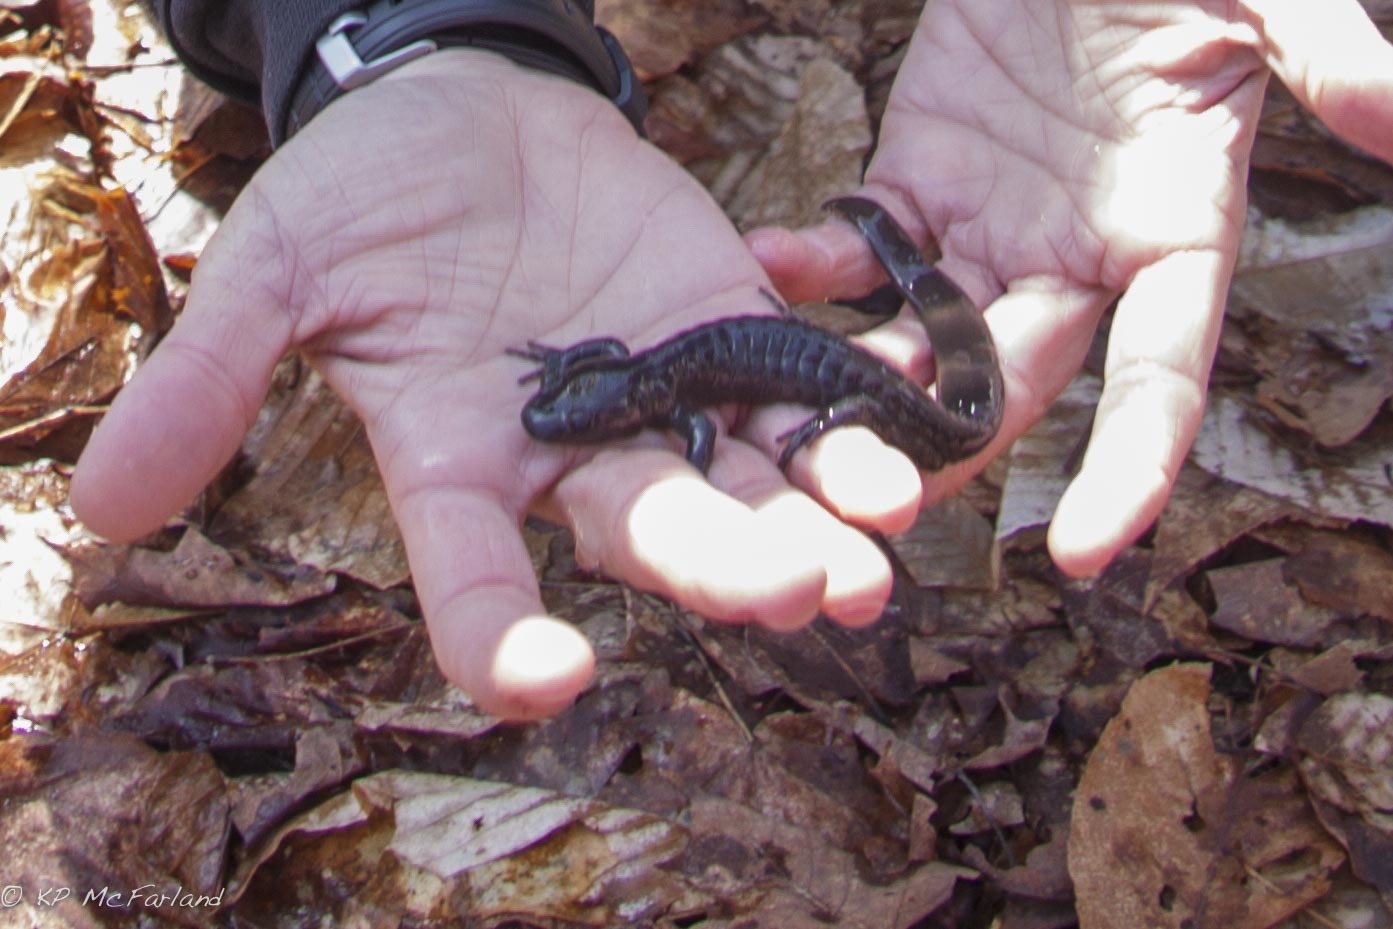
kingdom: Animalia
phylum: Chordata
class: Amphibia
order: Caudata
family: Ambystomatidae
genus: Ambystoma
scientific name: Ambystoma jeffersonianum
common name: Jefferson salamander
